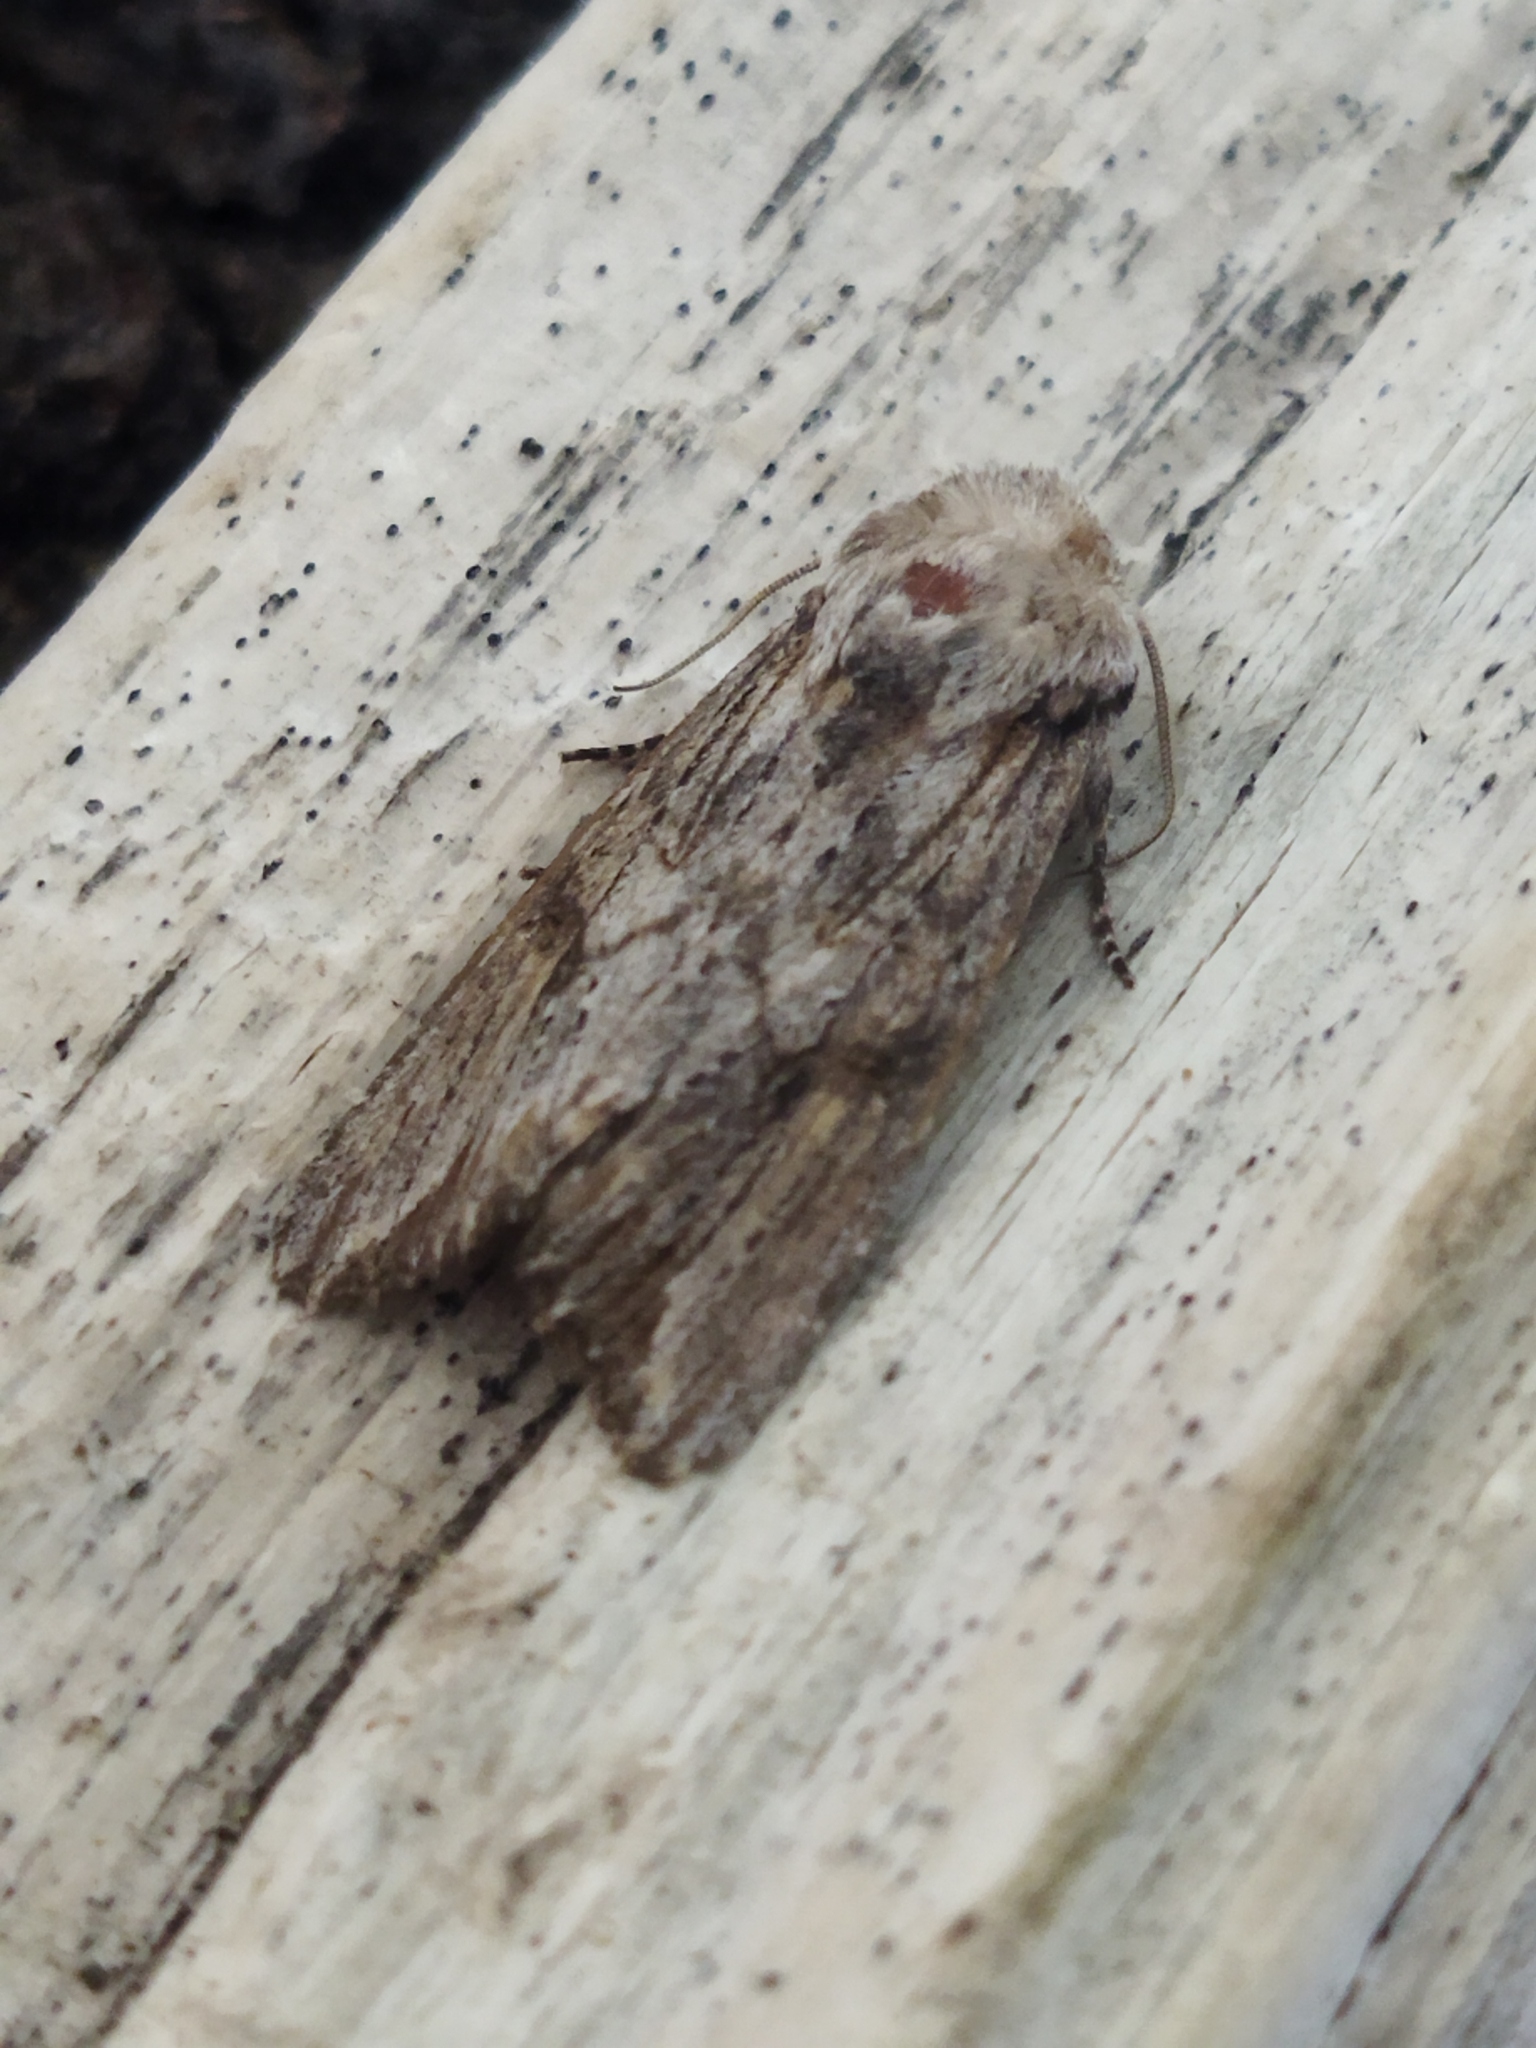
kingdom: Animalia
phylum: Arthropoda
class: Insecta
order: Lepidoptera
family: Noctuidae
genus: Egira
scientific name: Egira
